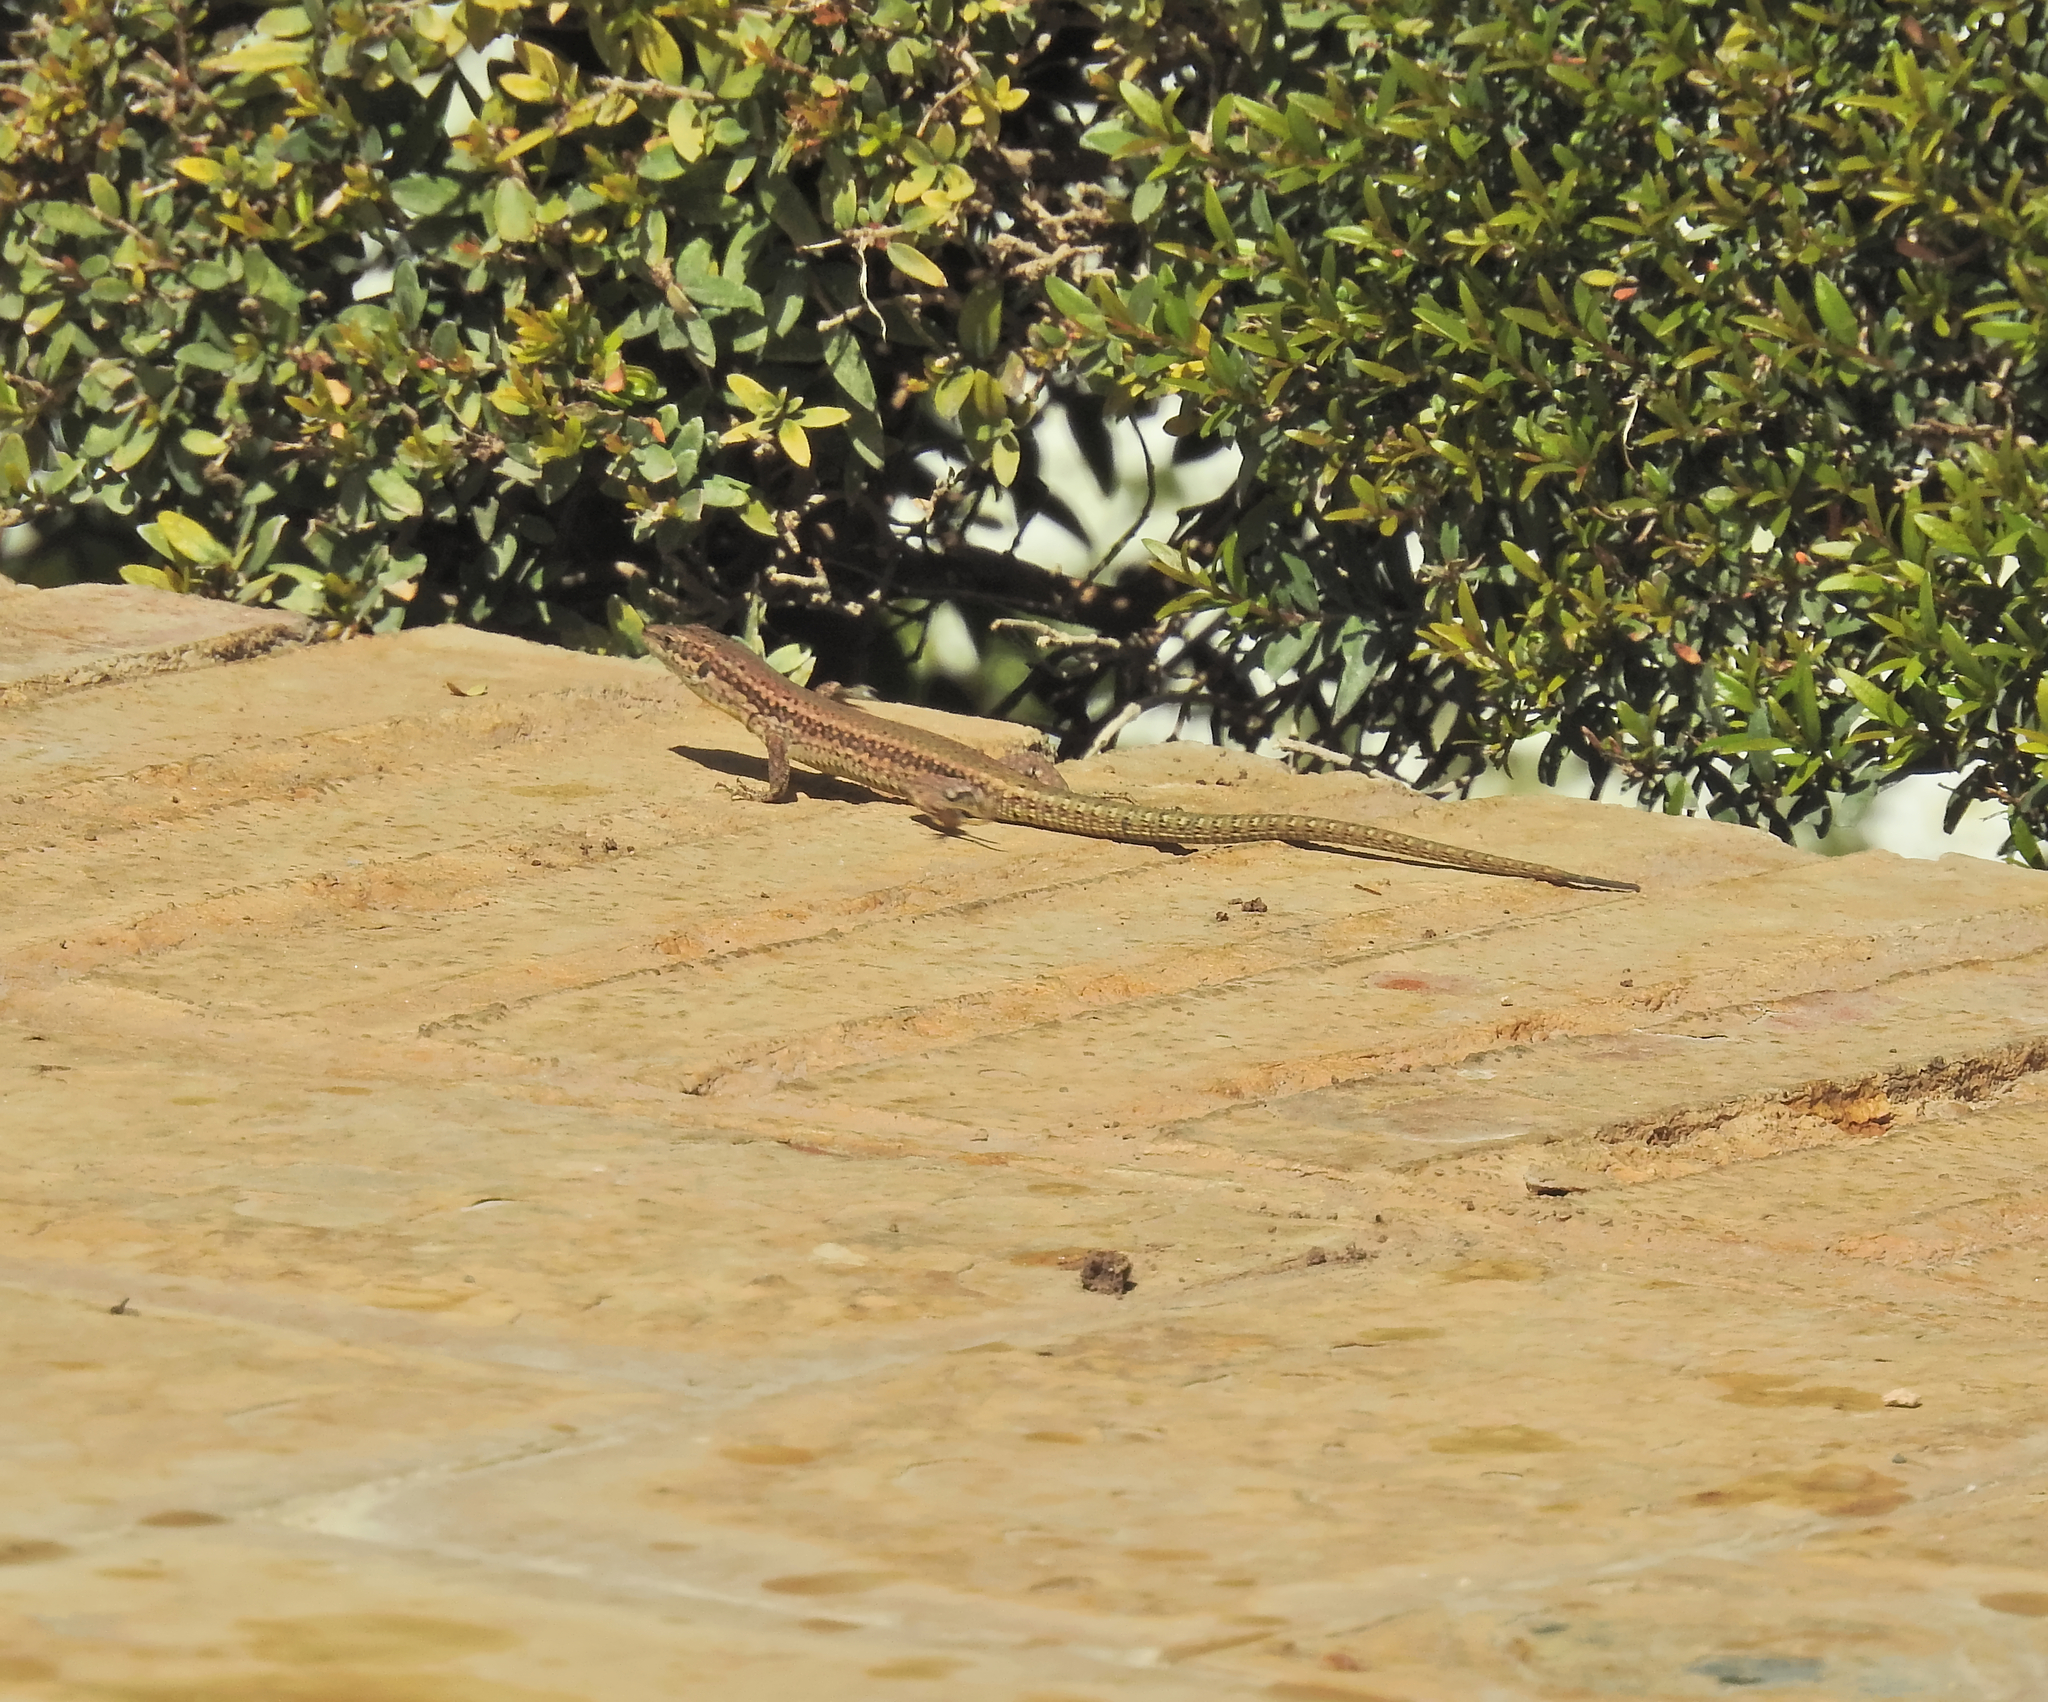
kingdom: Animalia
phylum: Chordata
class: Squamata
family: Lacertidae
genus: Podarcis
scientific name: Podarcis vaucheri
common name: Vaucher's wall lizard
